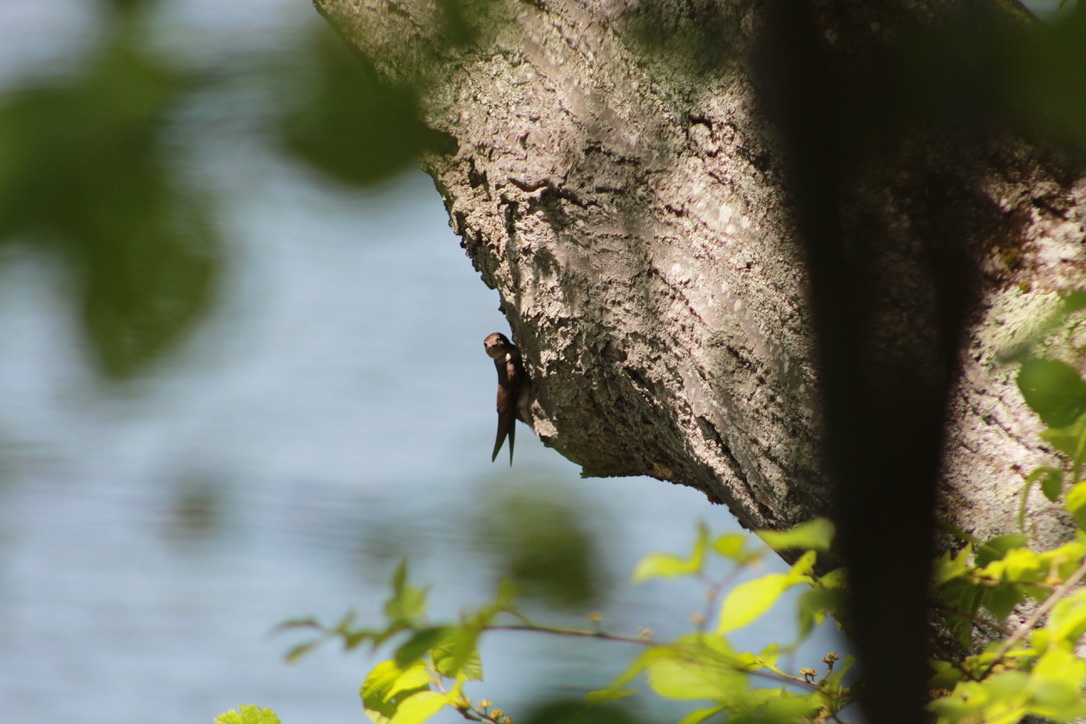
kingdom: Animalia
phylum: Chordata
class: Aves
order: Passeriformes
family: Hirundinidae
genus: Stelgidopteryx
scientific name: Stelgidopteryx serripennis
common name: Northern rough-winged swallow
